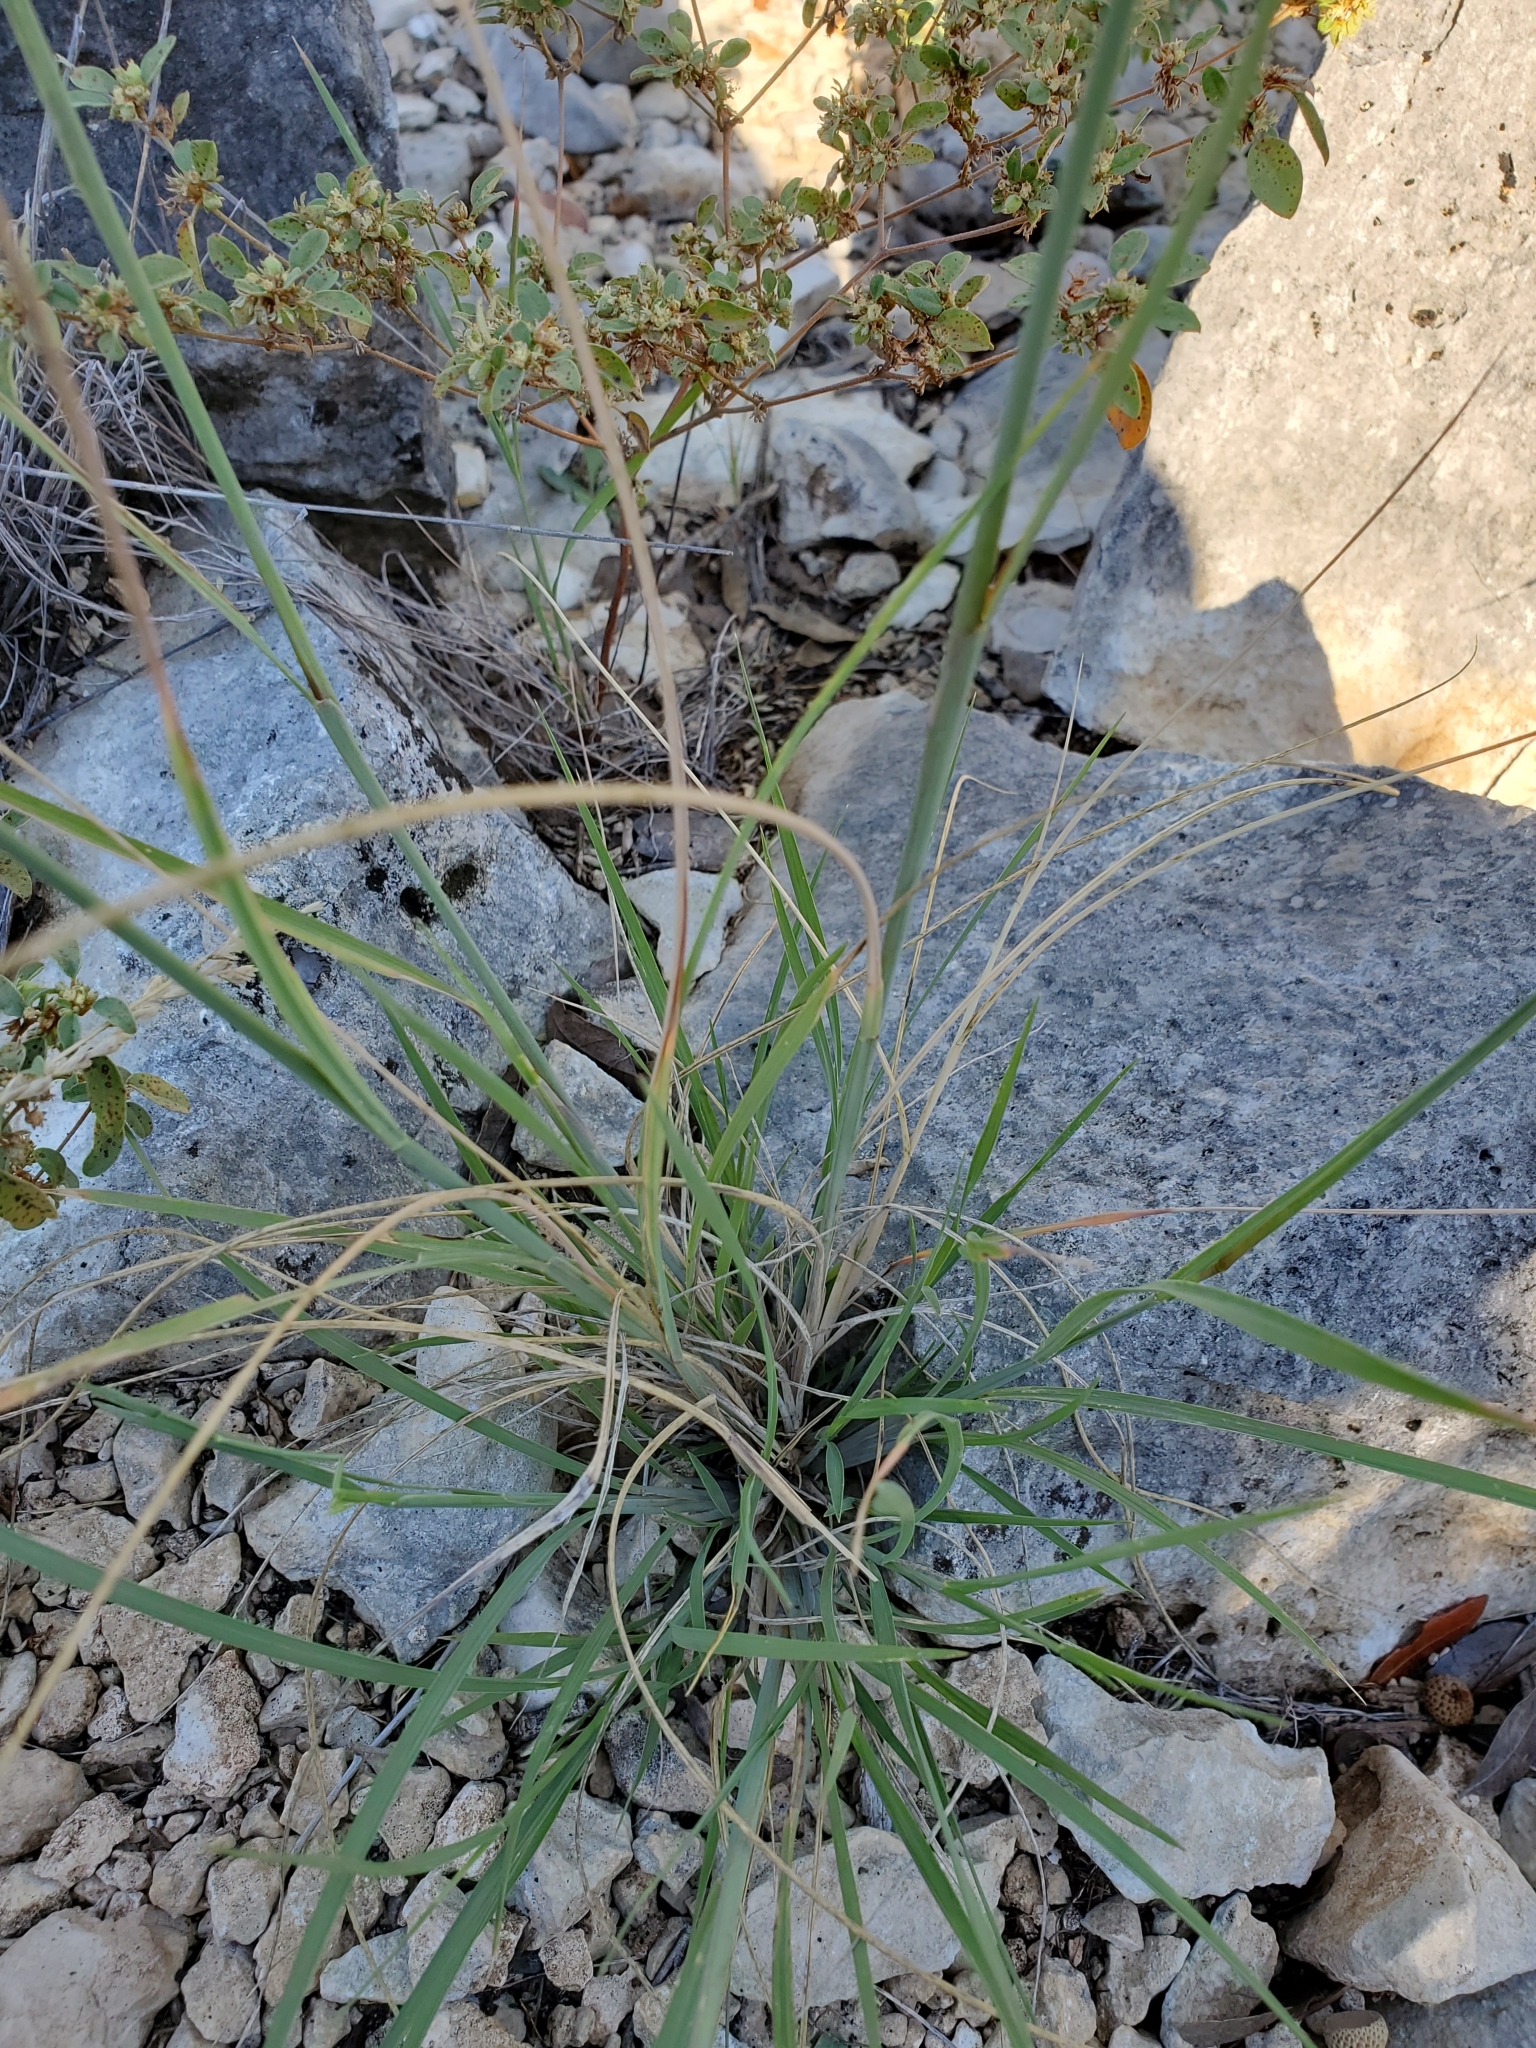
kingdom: Plantae
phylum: Tracheophyta
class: Liliopsida
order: Poales
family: Poaceae
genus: Disakisperma
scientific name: Disakisperma dubium
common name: Green sprangletop
